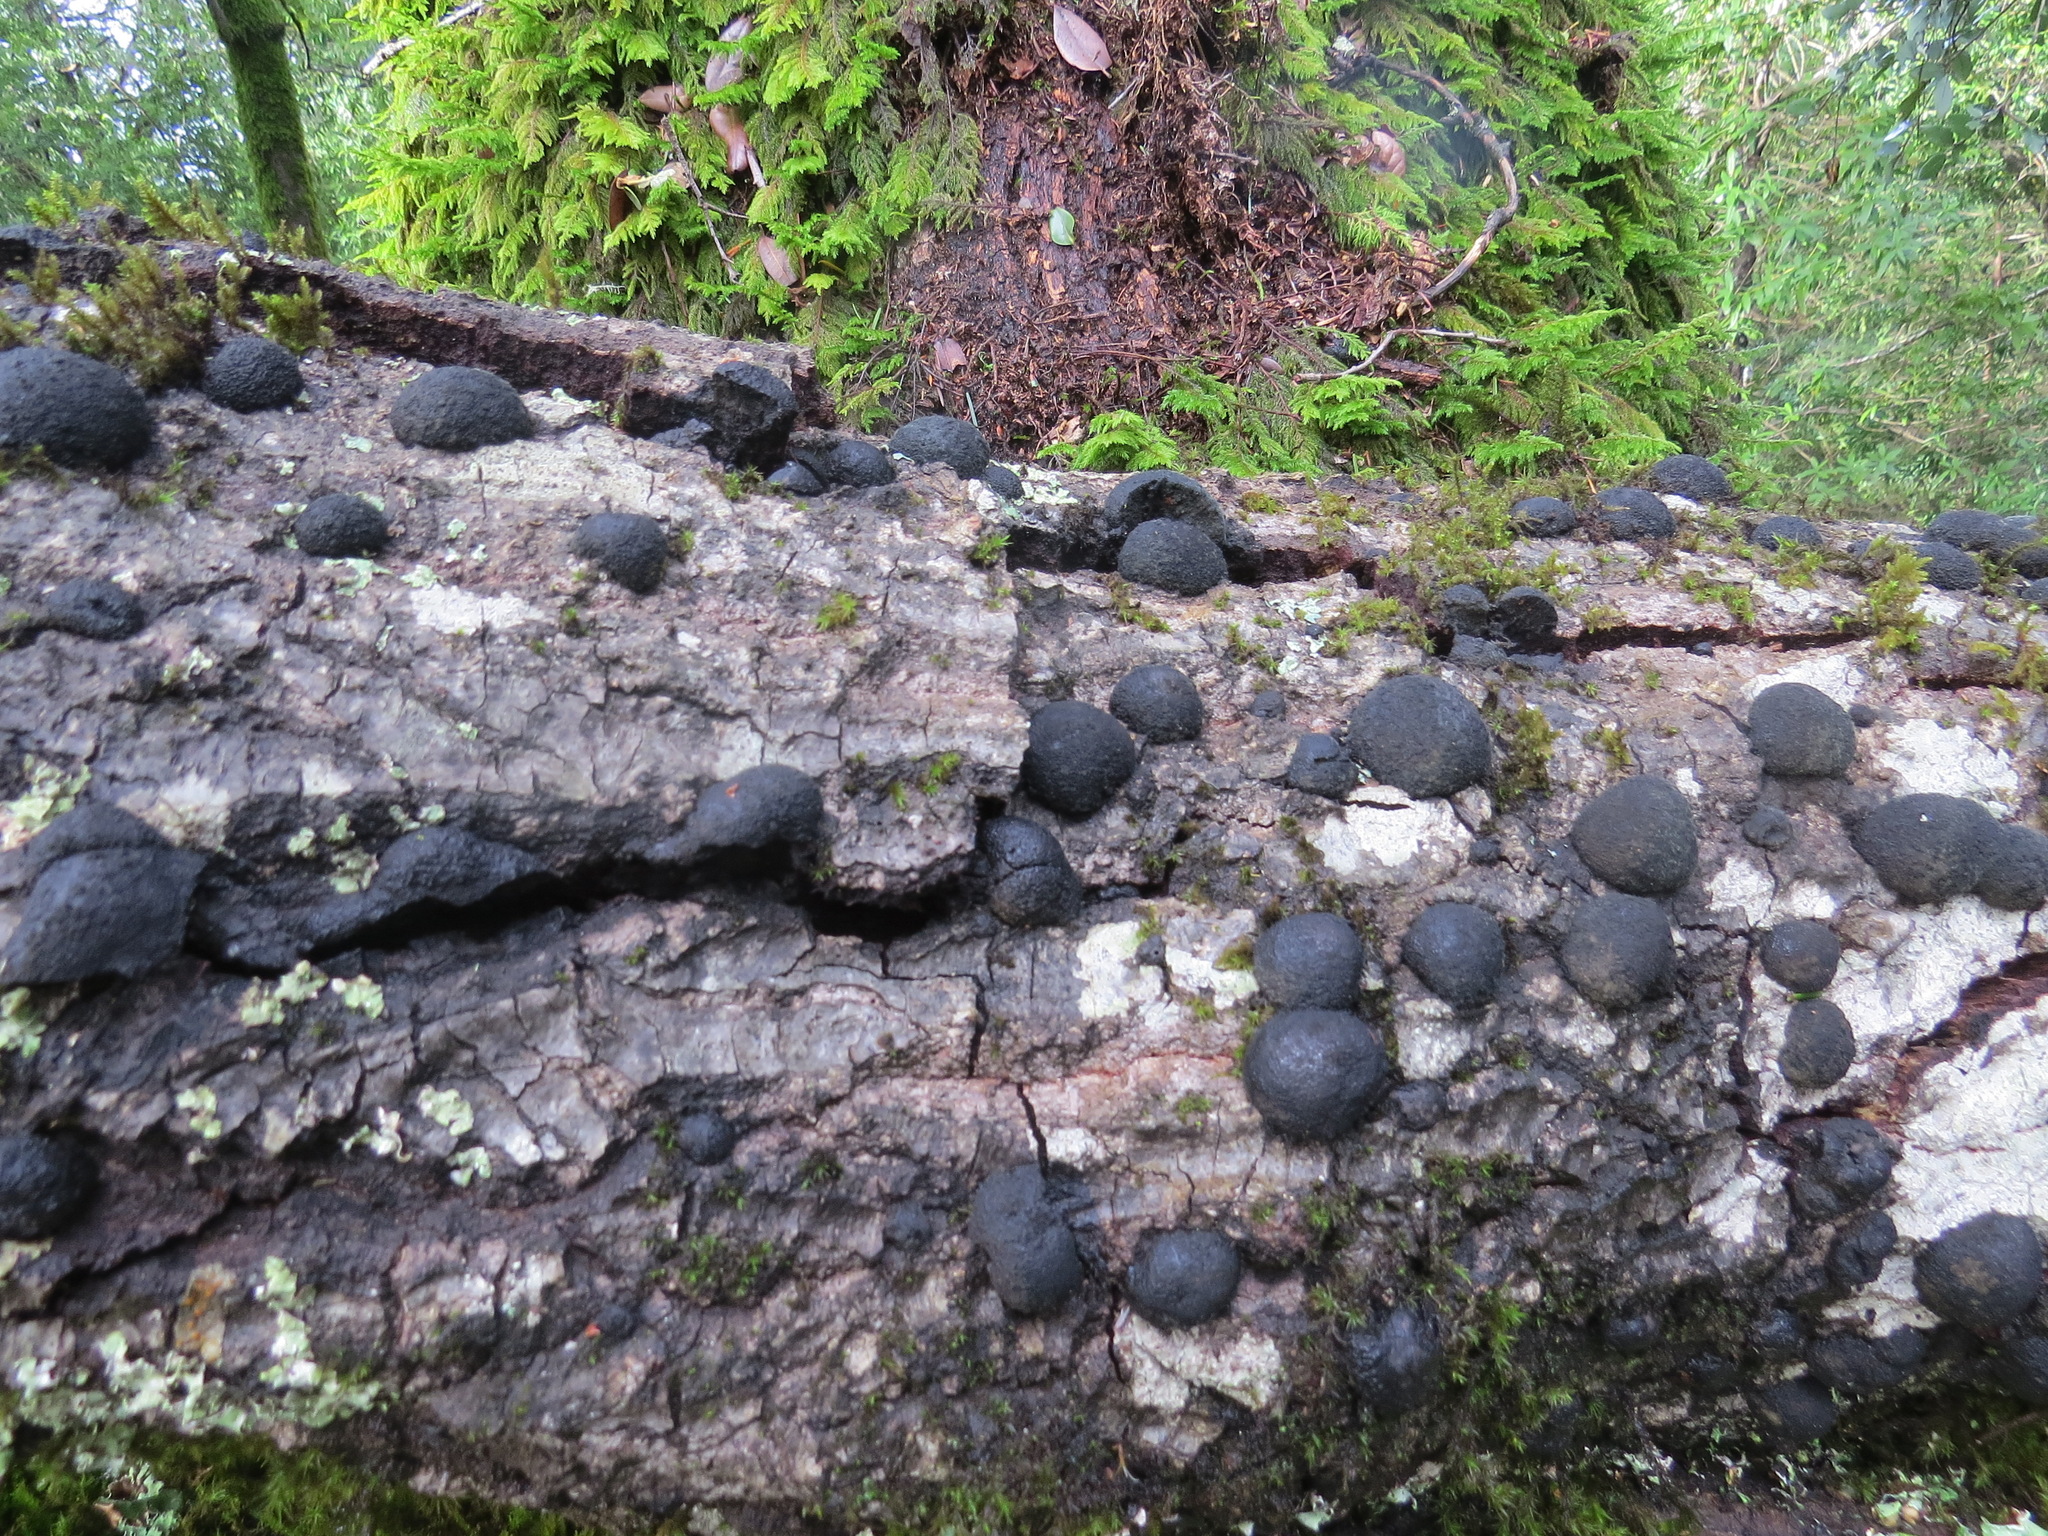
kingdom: Fungi
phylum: Ascomycota
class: Sordariomycetes
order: Xylariales
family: Hypoxylaceae
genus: Annulohypoxylon
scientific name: Annulohypoxylon thouarsianum
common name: Cramp balls
